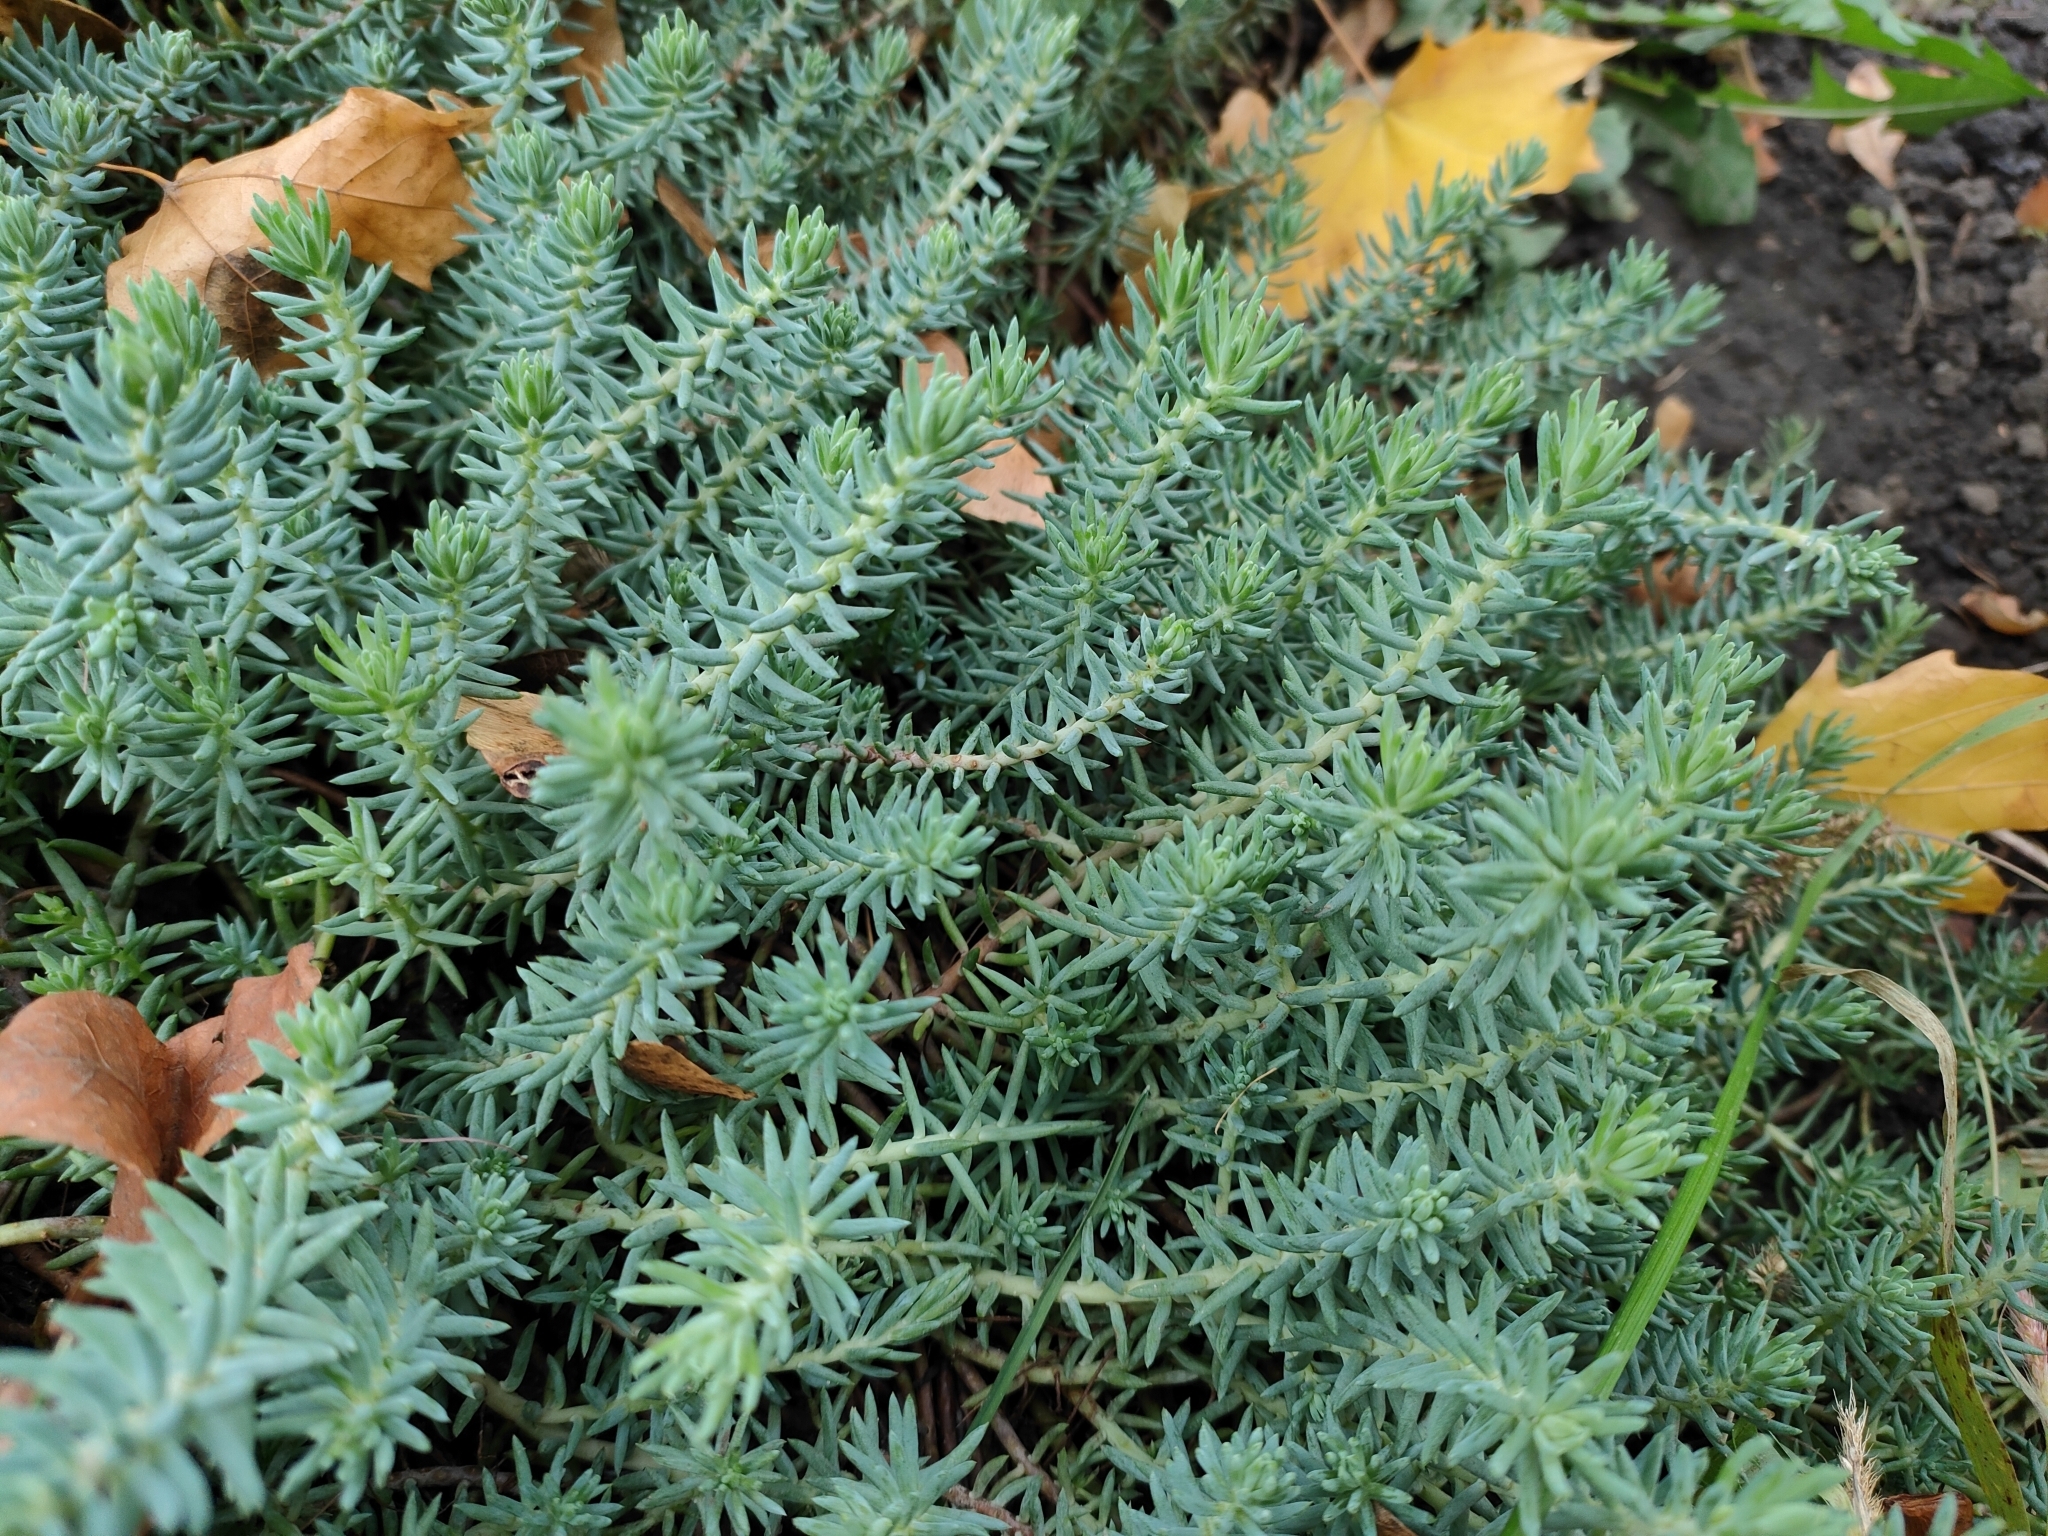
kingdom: Plantae
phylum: Tracheophyta
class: Magnoliopsida
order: Saxifragales
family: Crassulaceae
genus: Petrosedum
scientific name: Petrosedum rupestre
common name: Jenny's stonecrop
